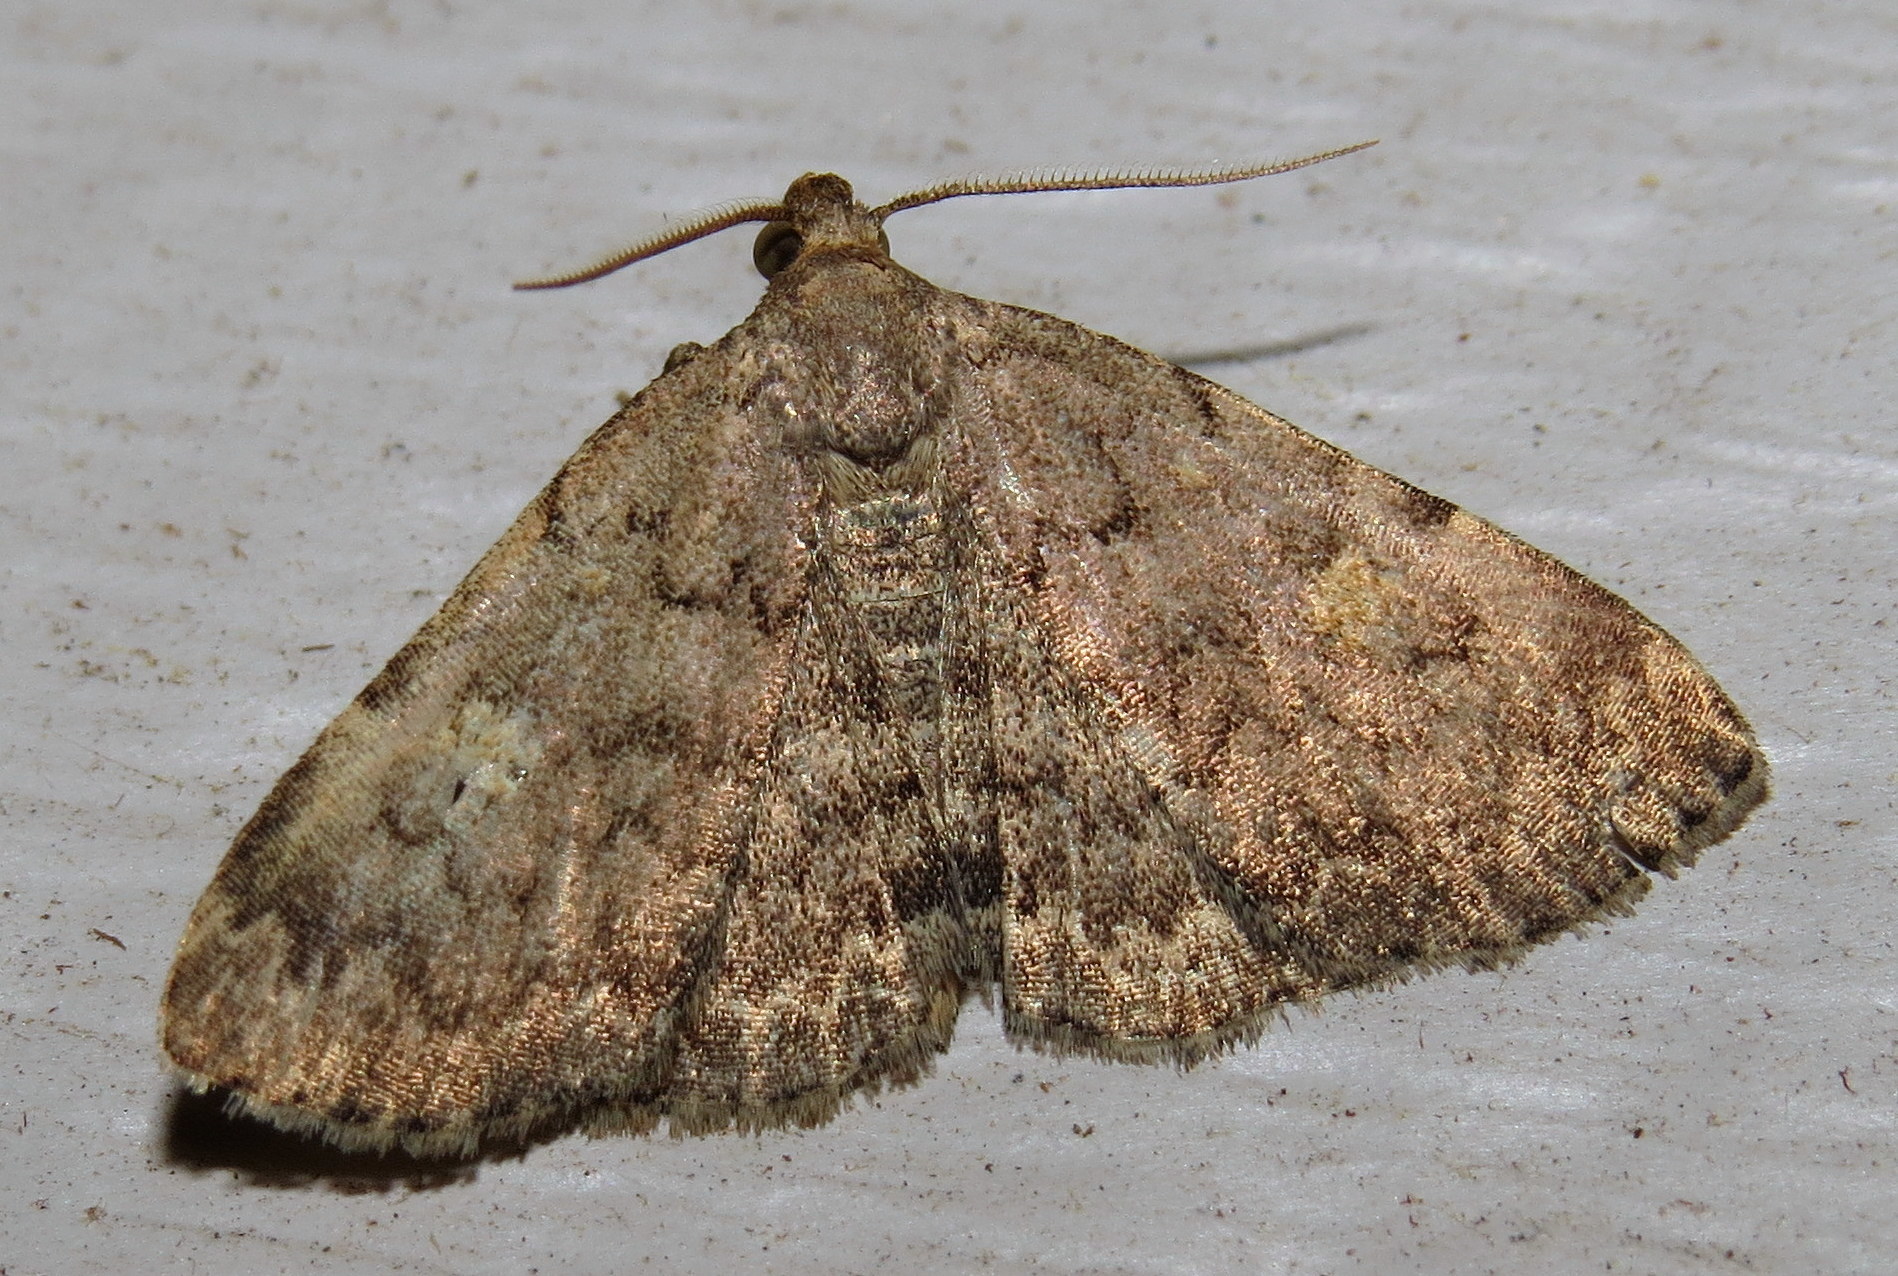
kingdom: Animalia
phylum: Arthropoda
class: Insecta
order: Lepidoptera
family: Erebidae
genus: Idia
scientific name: Idia aemula
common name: Common idia moth
